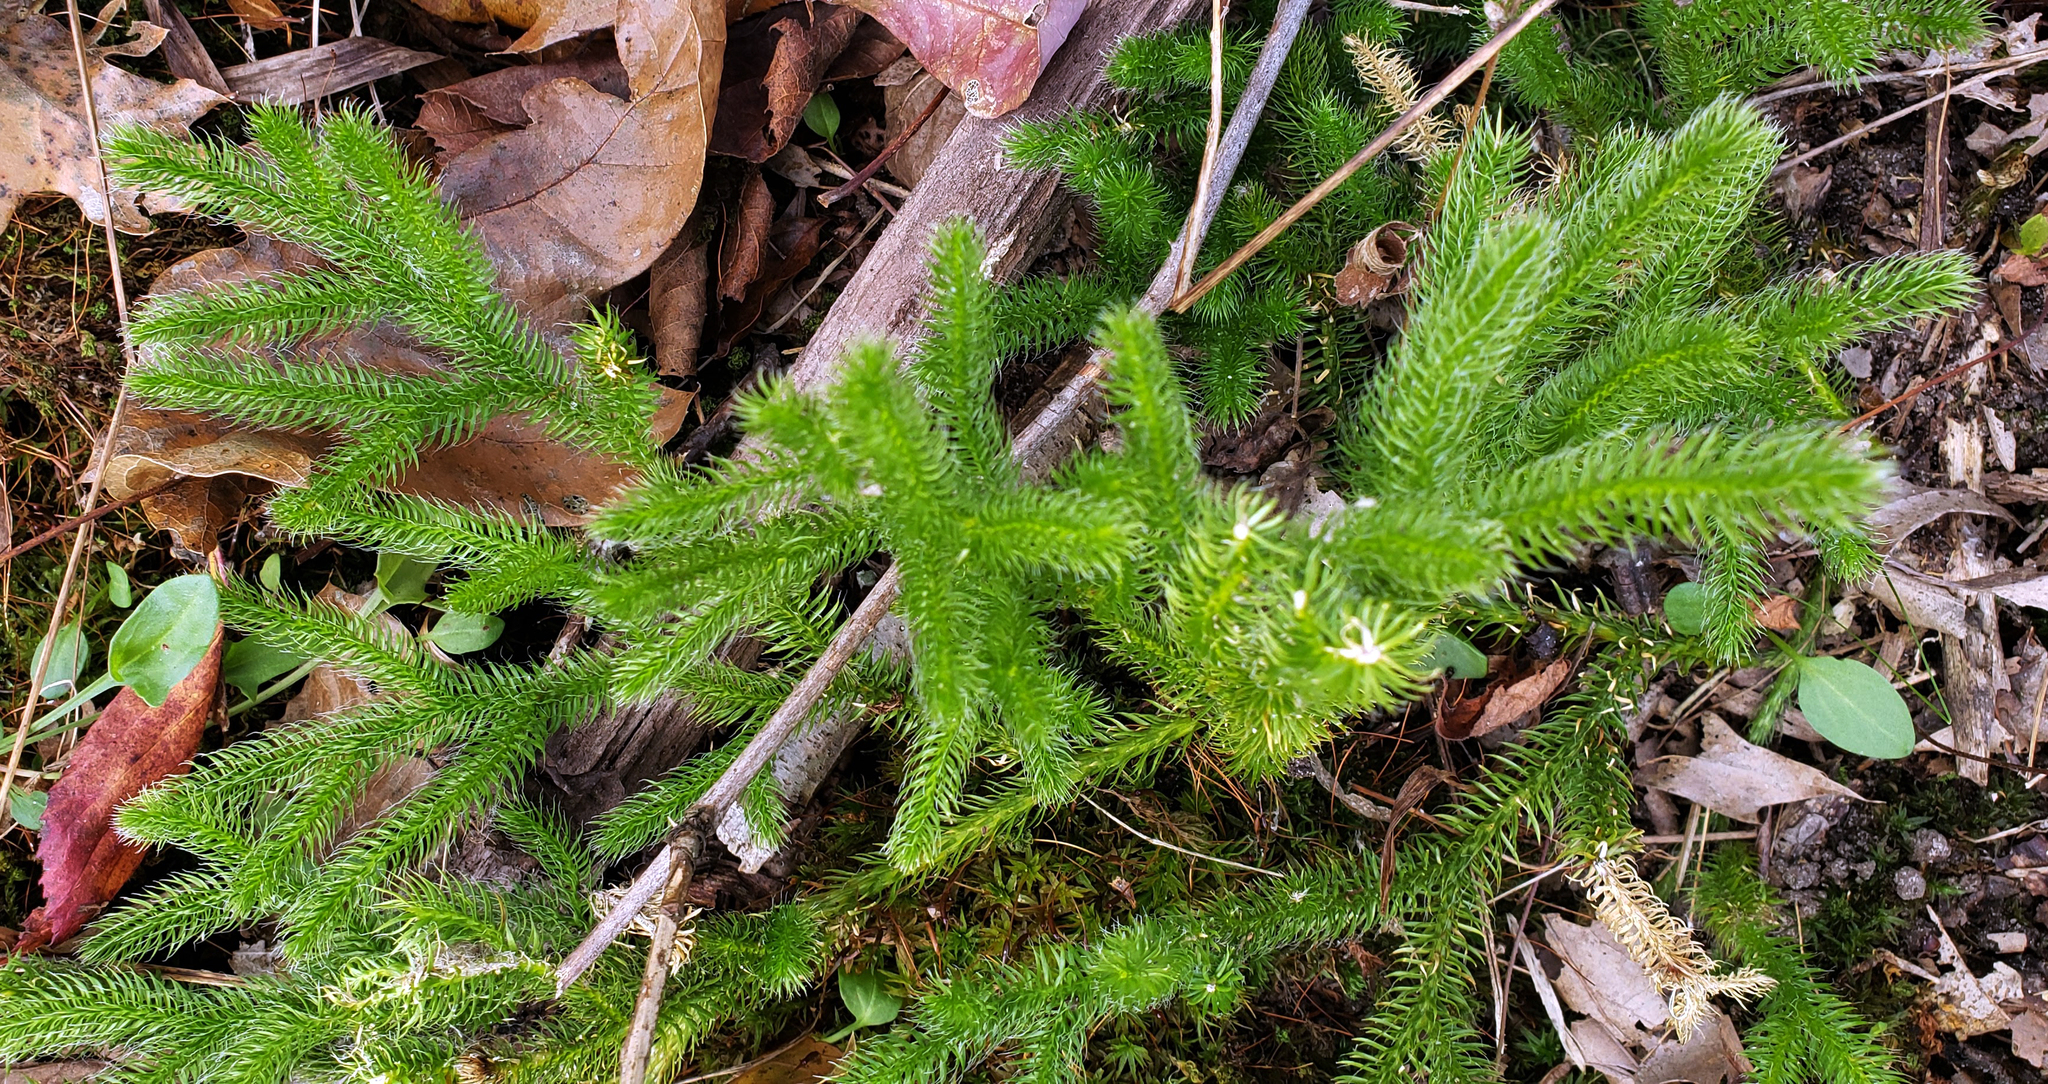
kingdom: Plantae
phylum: Tracheophyta
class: Lycopodiopsida
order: Lycopodiales
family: Lycopodiaceae
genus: Lycopodium
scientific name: Lycopodium clavatum
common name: Stag's-horn clubmoss
